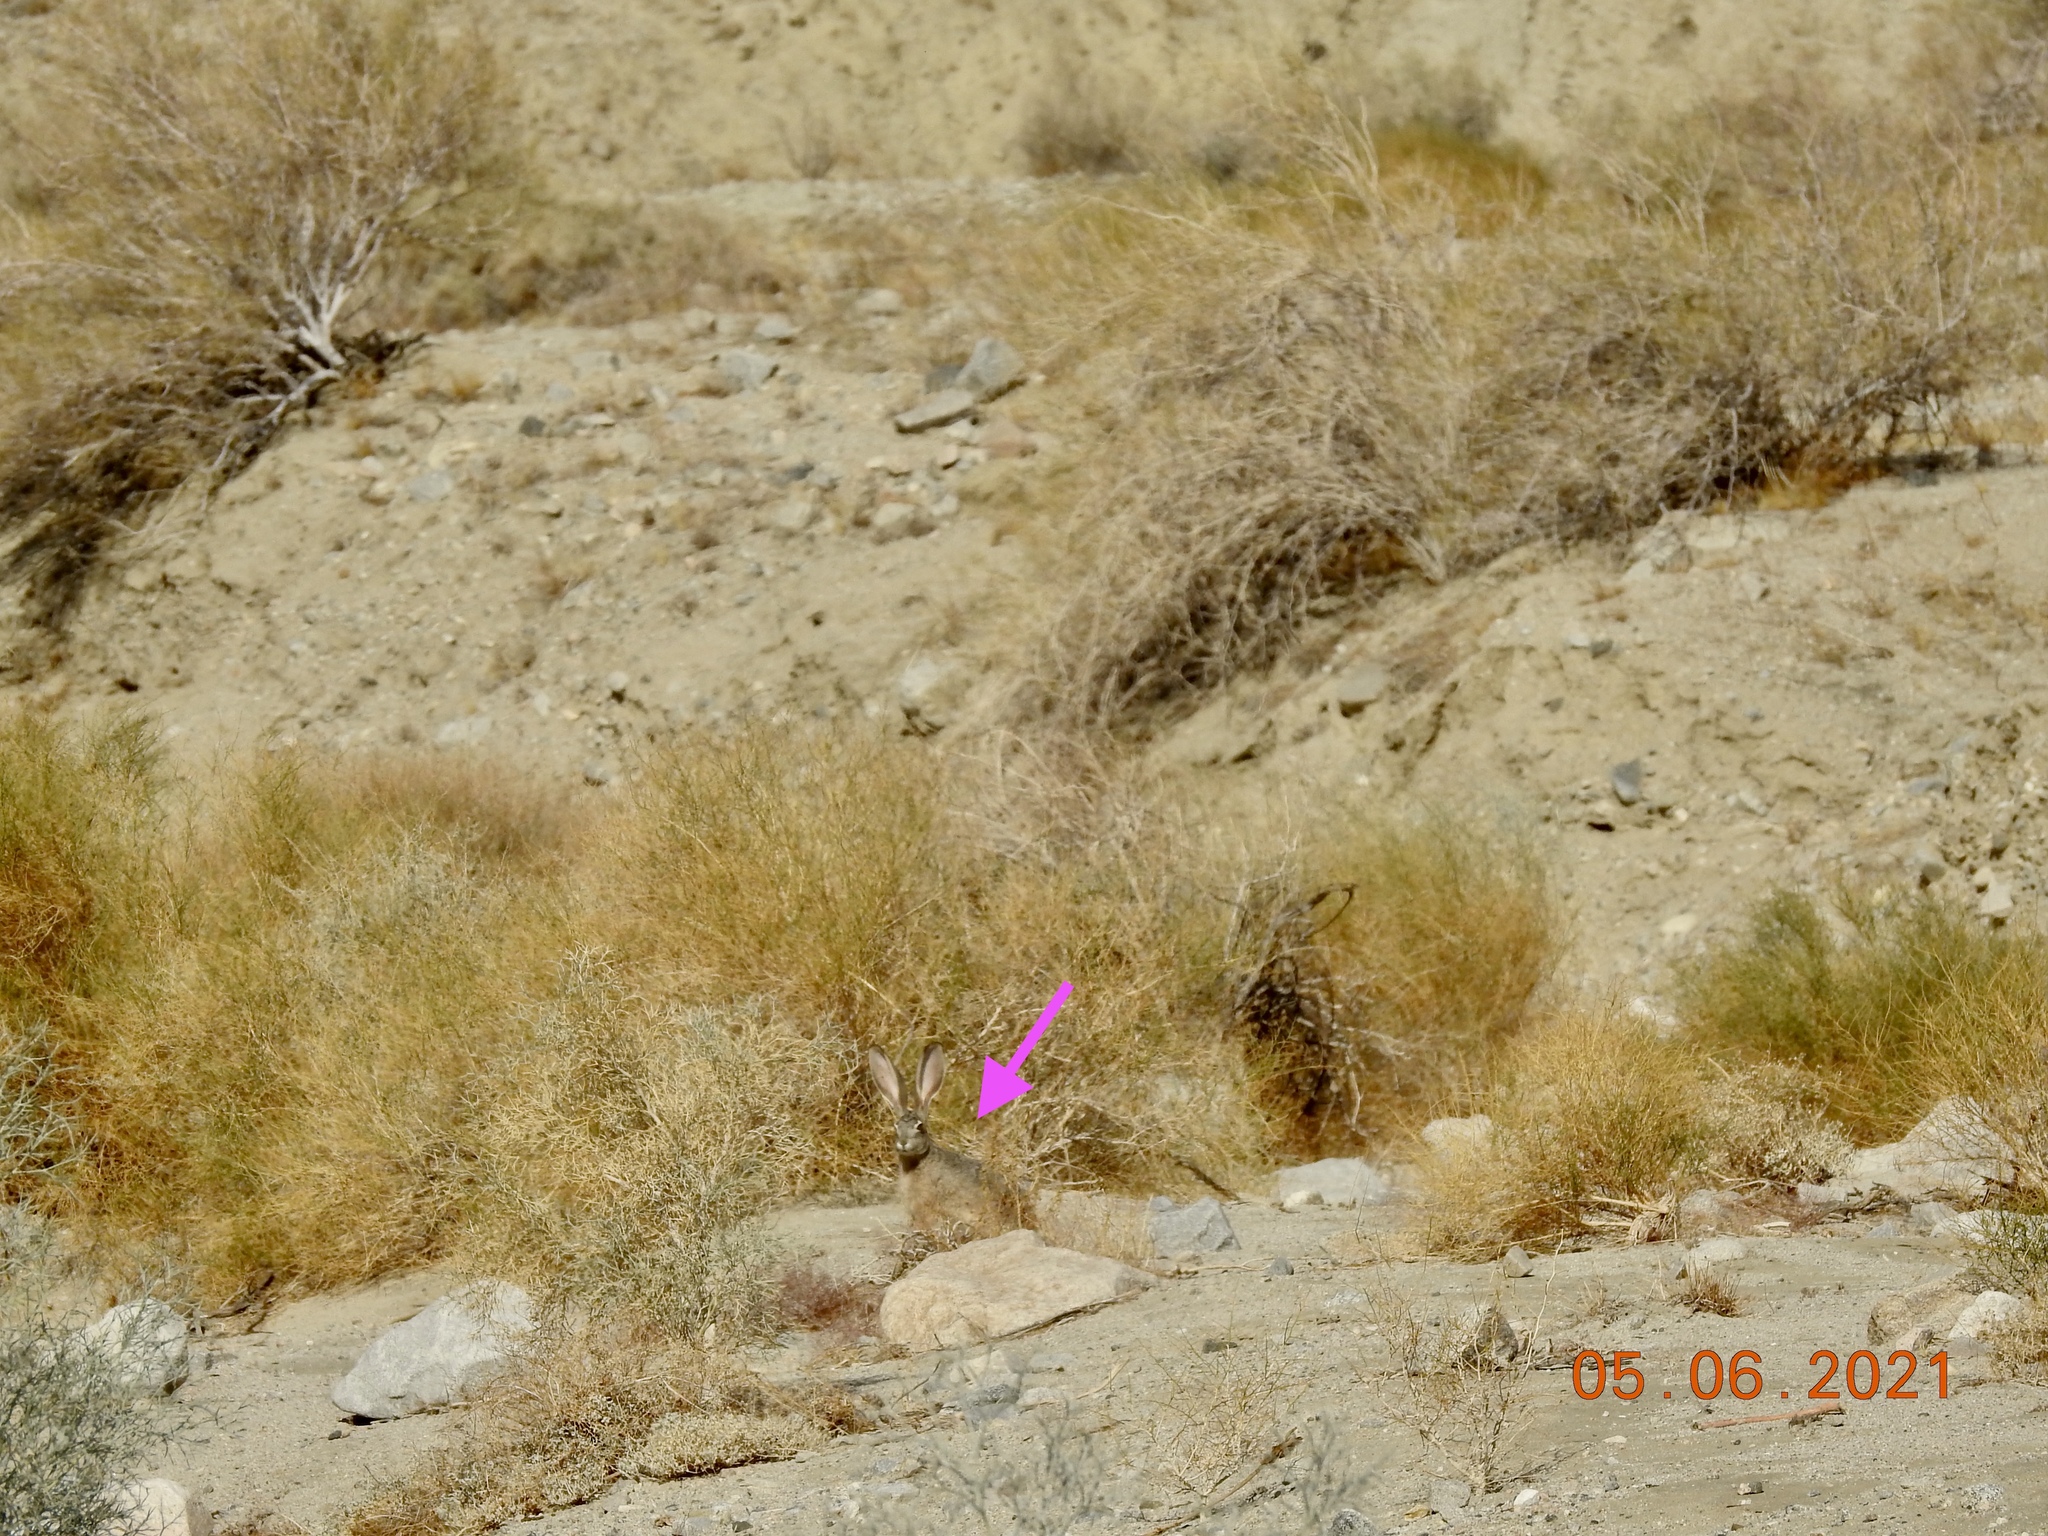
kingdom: Animalia
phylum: Chordata
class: Mammalia
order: Lagomorpha
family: Leporidae
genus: Lepus
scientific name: Lepus californicus
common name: Black-tailed jackrabbit
